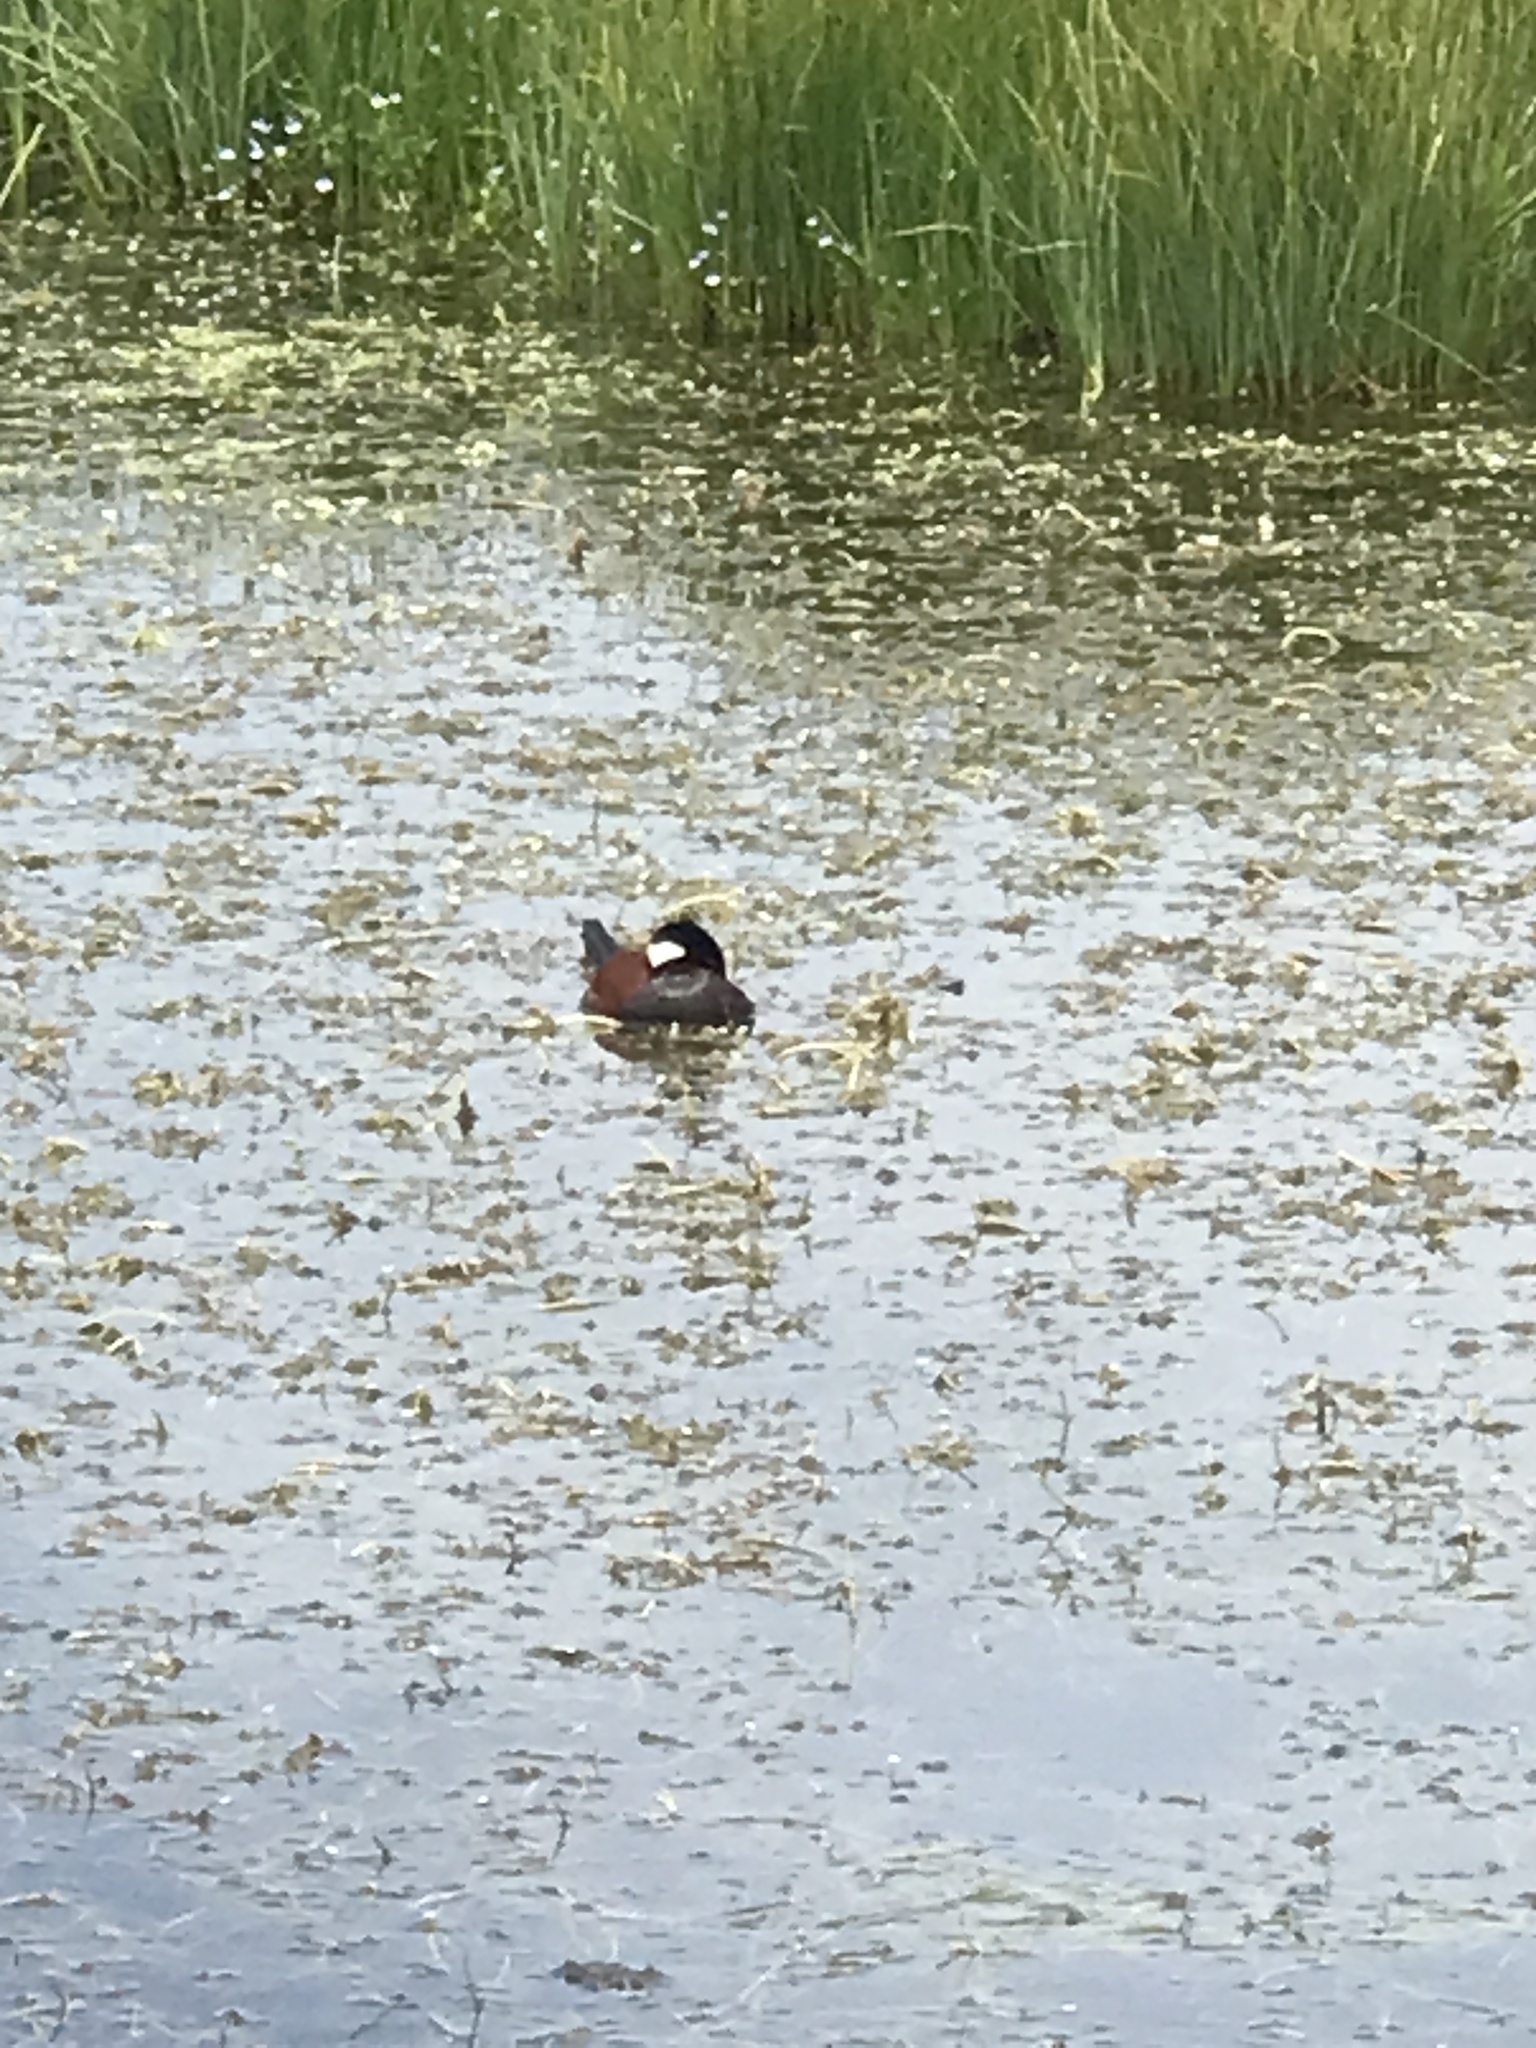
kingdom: Animalia
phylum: Chordata
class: Aves
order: Anseriformes
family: Anatidae
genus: Oxyura
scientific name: Oxyura jamaicensis
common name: Ruddy duck
